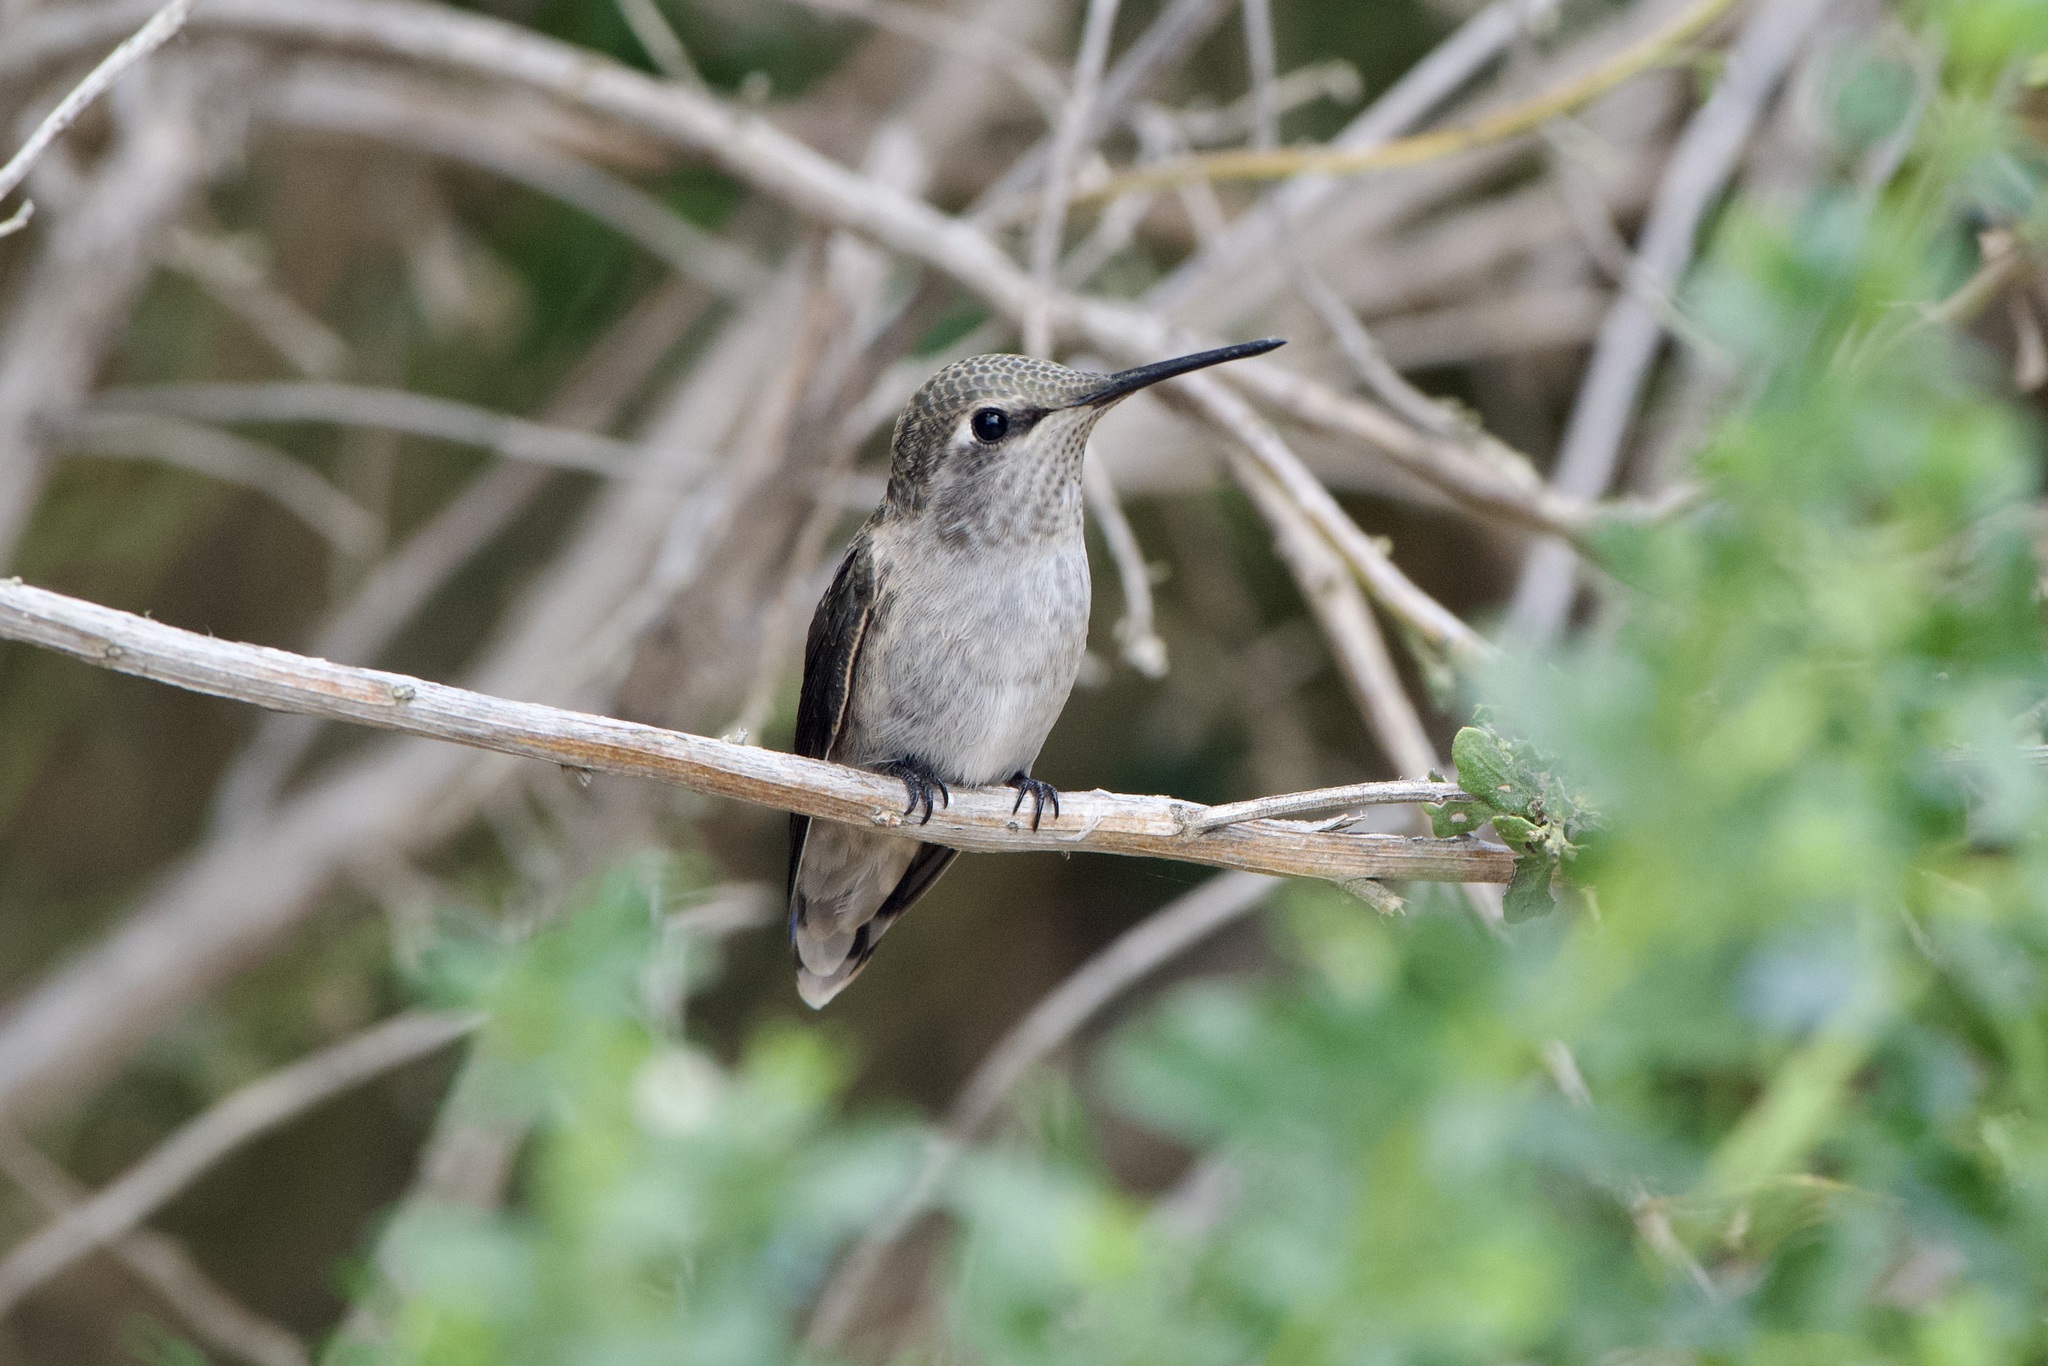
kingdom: Animalia
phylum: Chordata
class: Aves
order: Apodiformes
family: Trochilidae
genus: Calypte
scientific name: Calypte anna
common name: Anna's hummingbird
